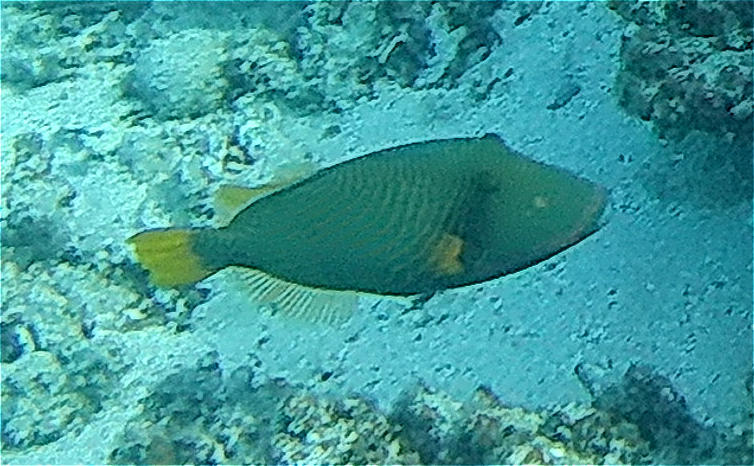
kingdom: Animalia
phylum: Chordata
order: Tetraodontiformes
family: Balistidae
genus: Balistapus
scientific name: Balistapus undulatus
